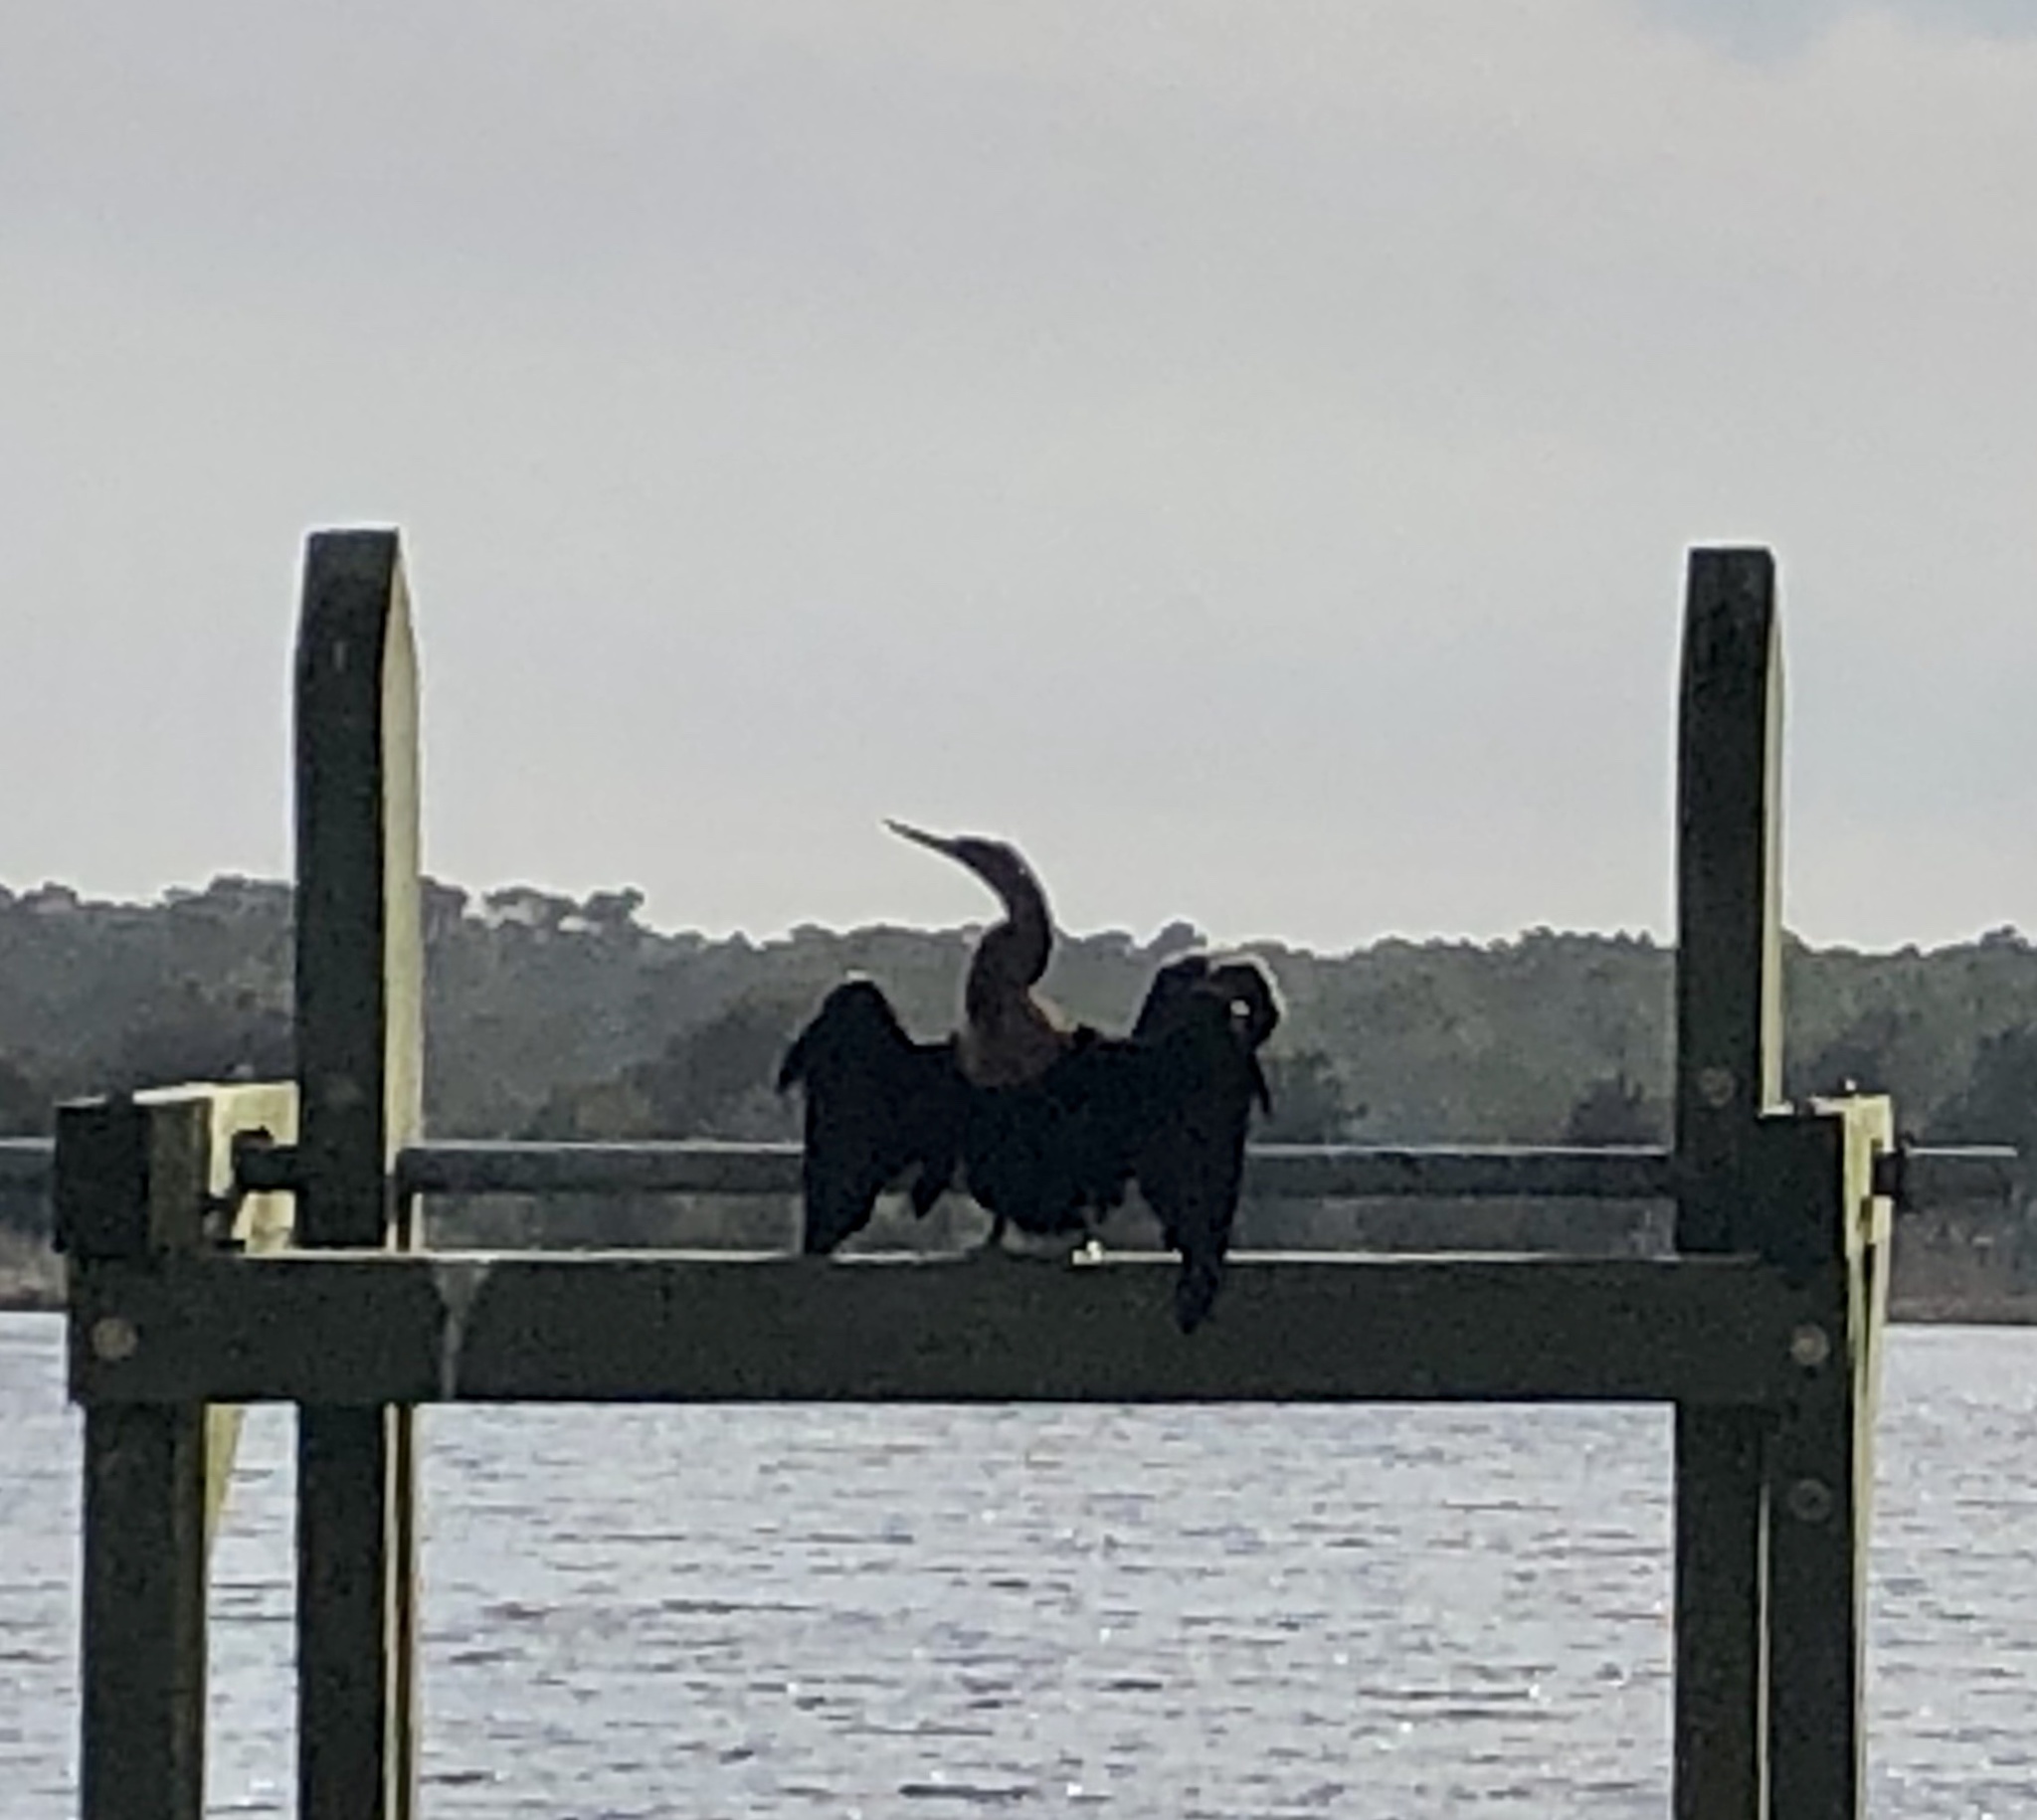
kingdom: Animalia
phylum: Chordata
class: Aves
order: Suliformes
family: Anhingidae
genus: Anhinga
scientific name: Anhinga anhinga
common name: Anhinga
